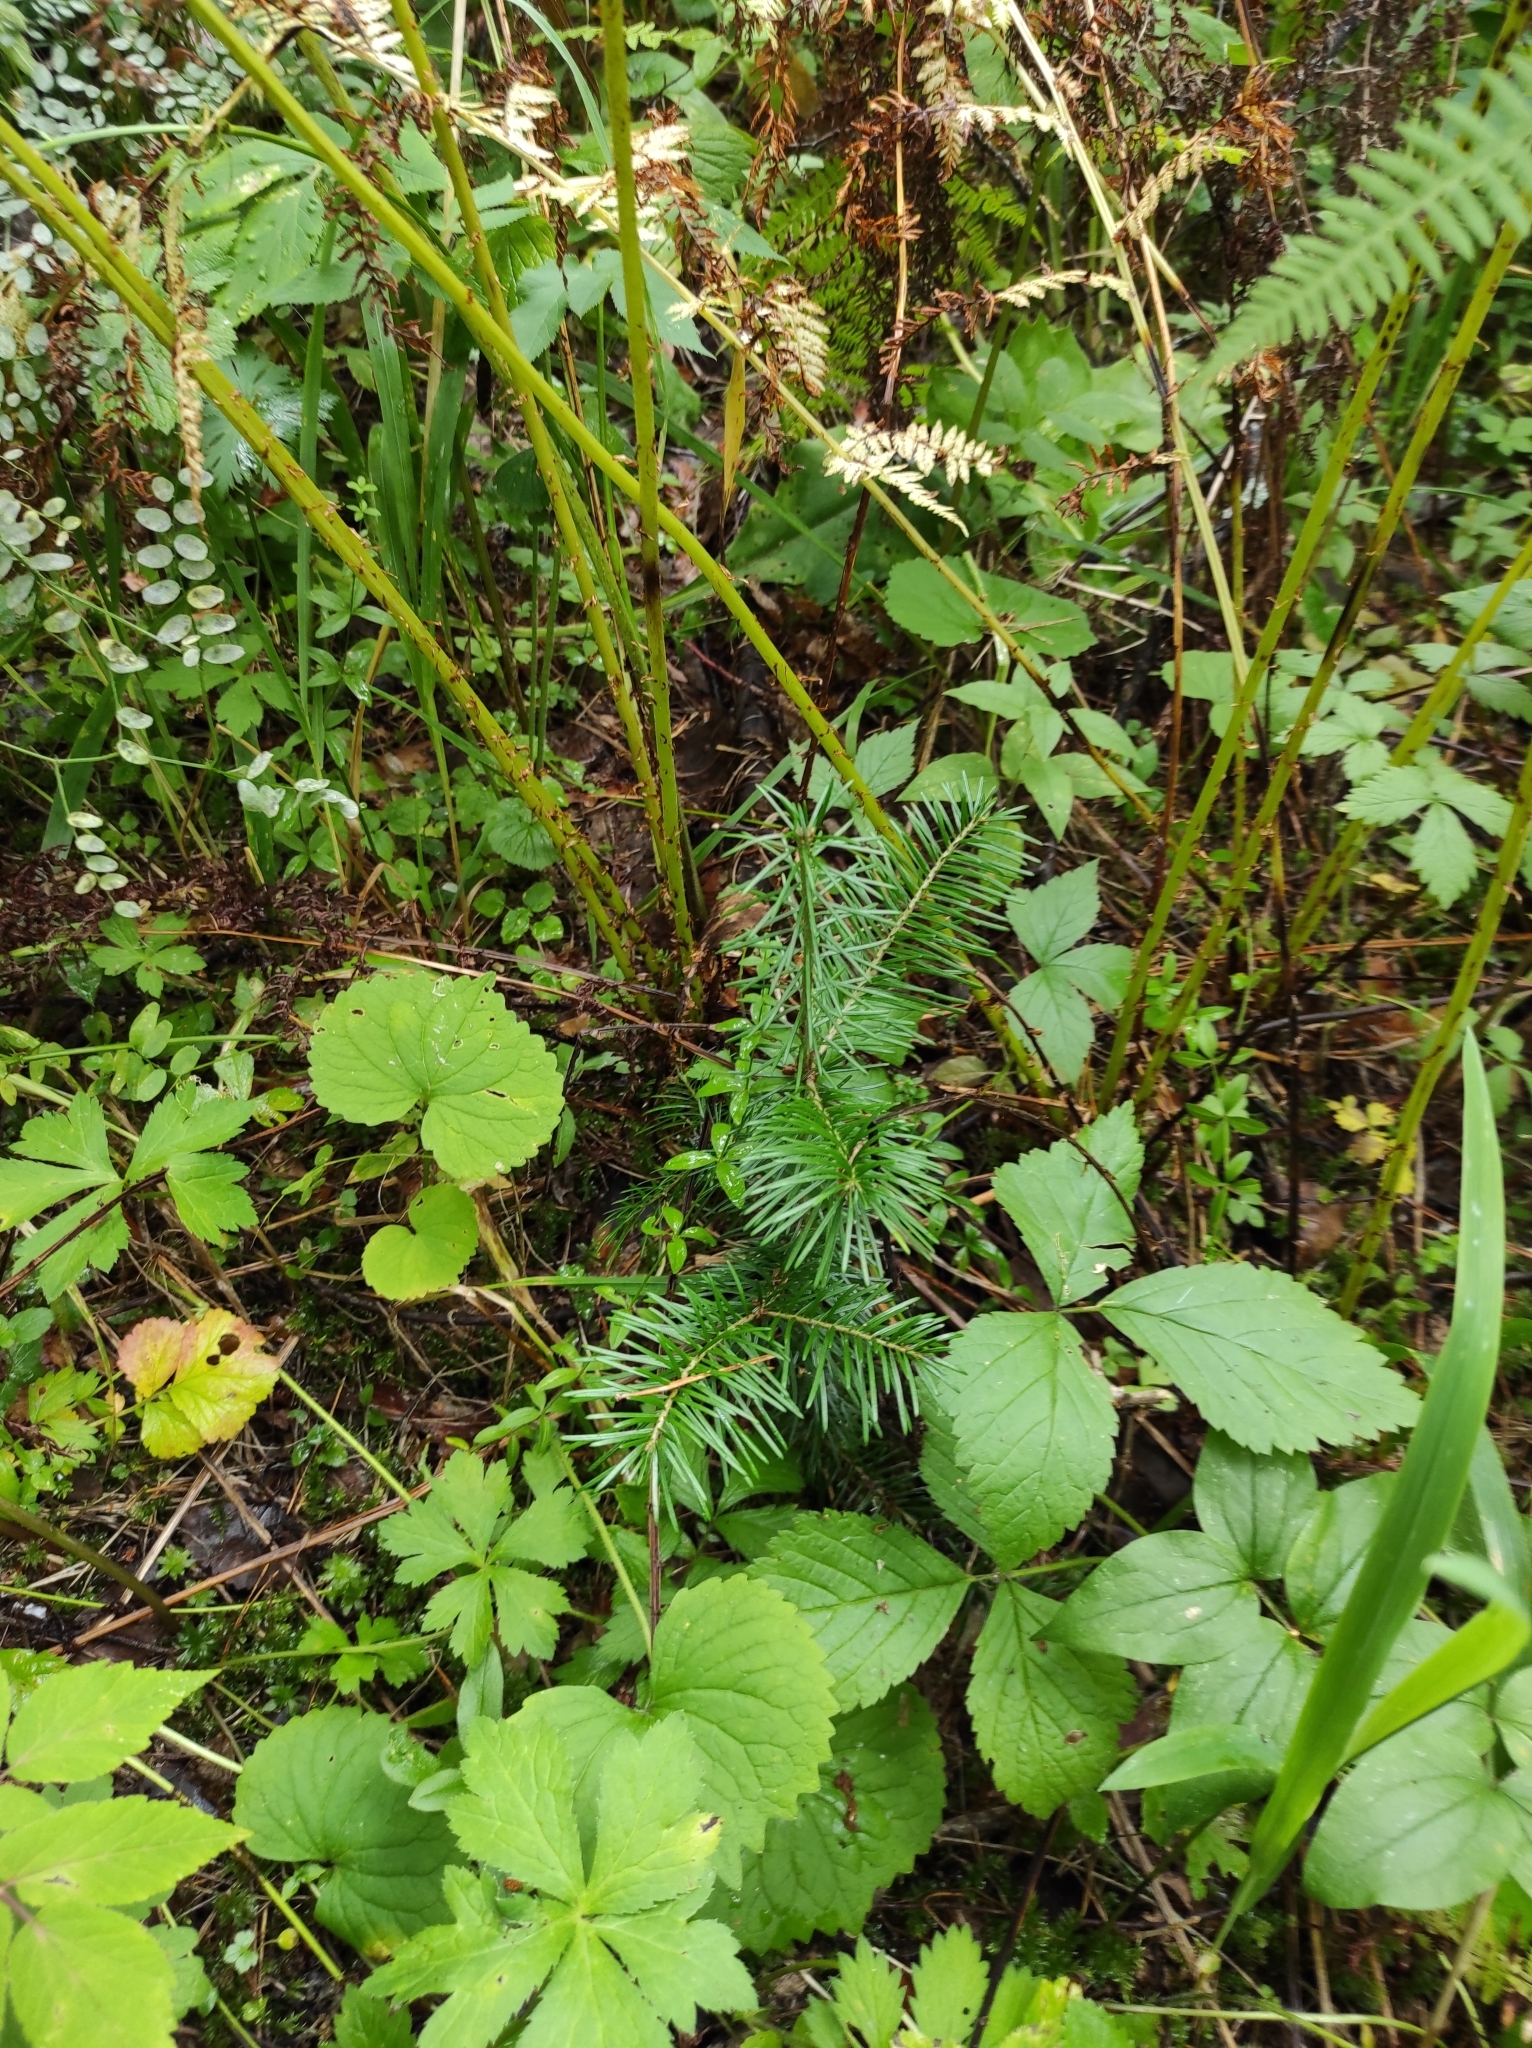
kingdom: Plantae
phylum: Tracheophyta
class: Magnoliopsida
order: Malpighiales
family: Violaceae
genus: Viola
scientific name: Viola uniflora
